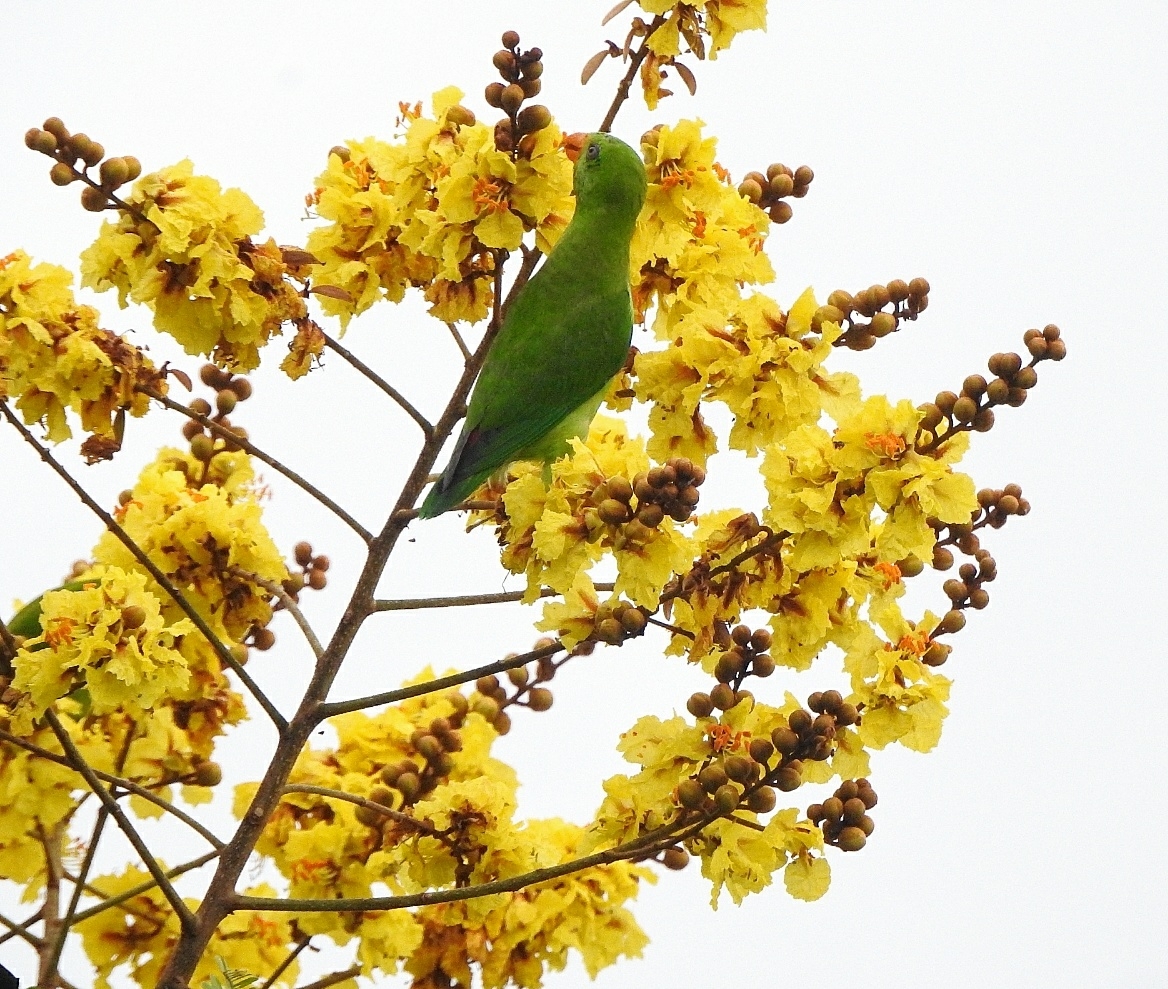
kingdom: Animalia
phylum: Chordata
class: Aves
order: Psittaciformes
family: Psittacidae
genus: Loriculus
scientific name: Loriculus vernalis
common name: Vernal hanging parrot
